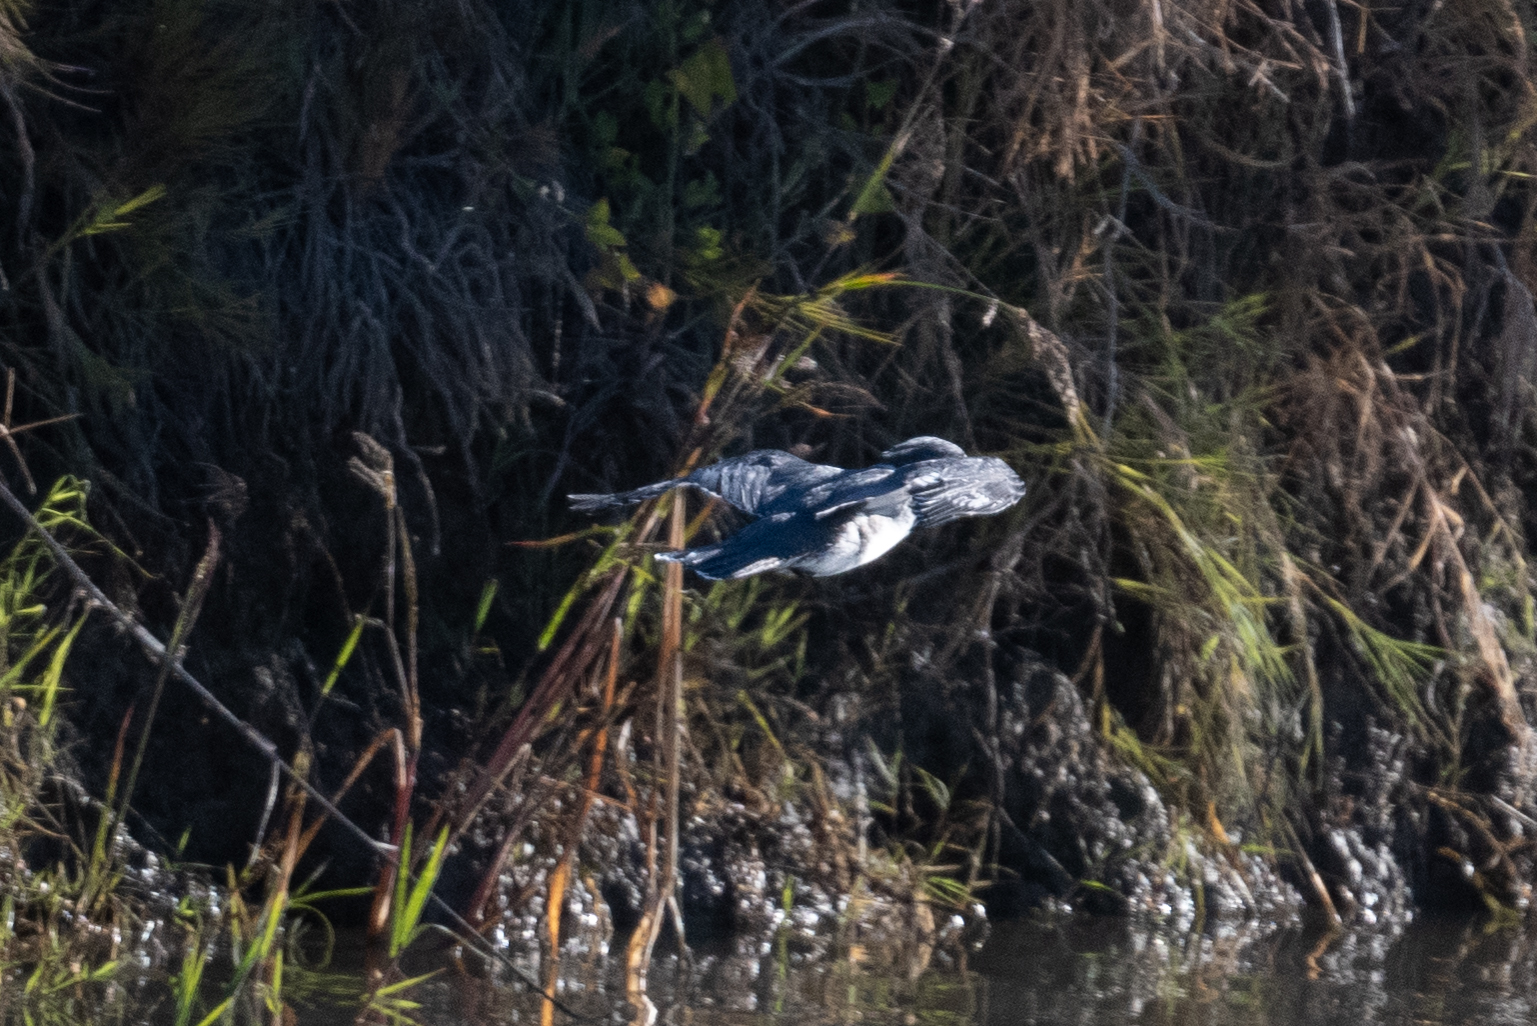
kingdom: Animalia
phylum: Chordata
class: Aves
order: Coraciiformes
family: Alcedinidae
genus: Megaceryle
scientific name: Megaceryle alcyon
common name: Belted kingfisher
